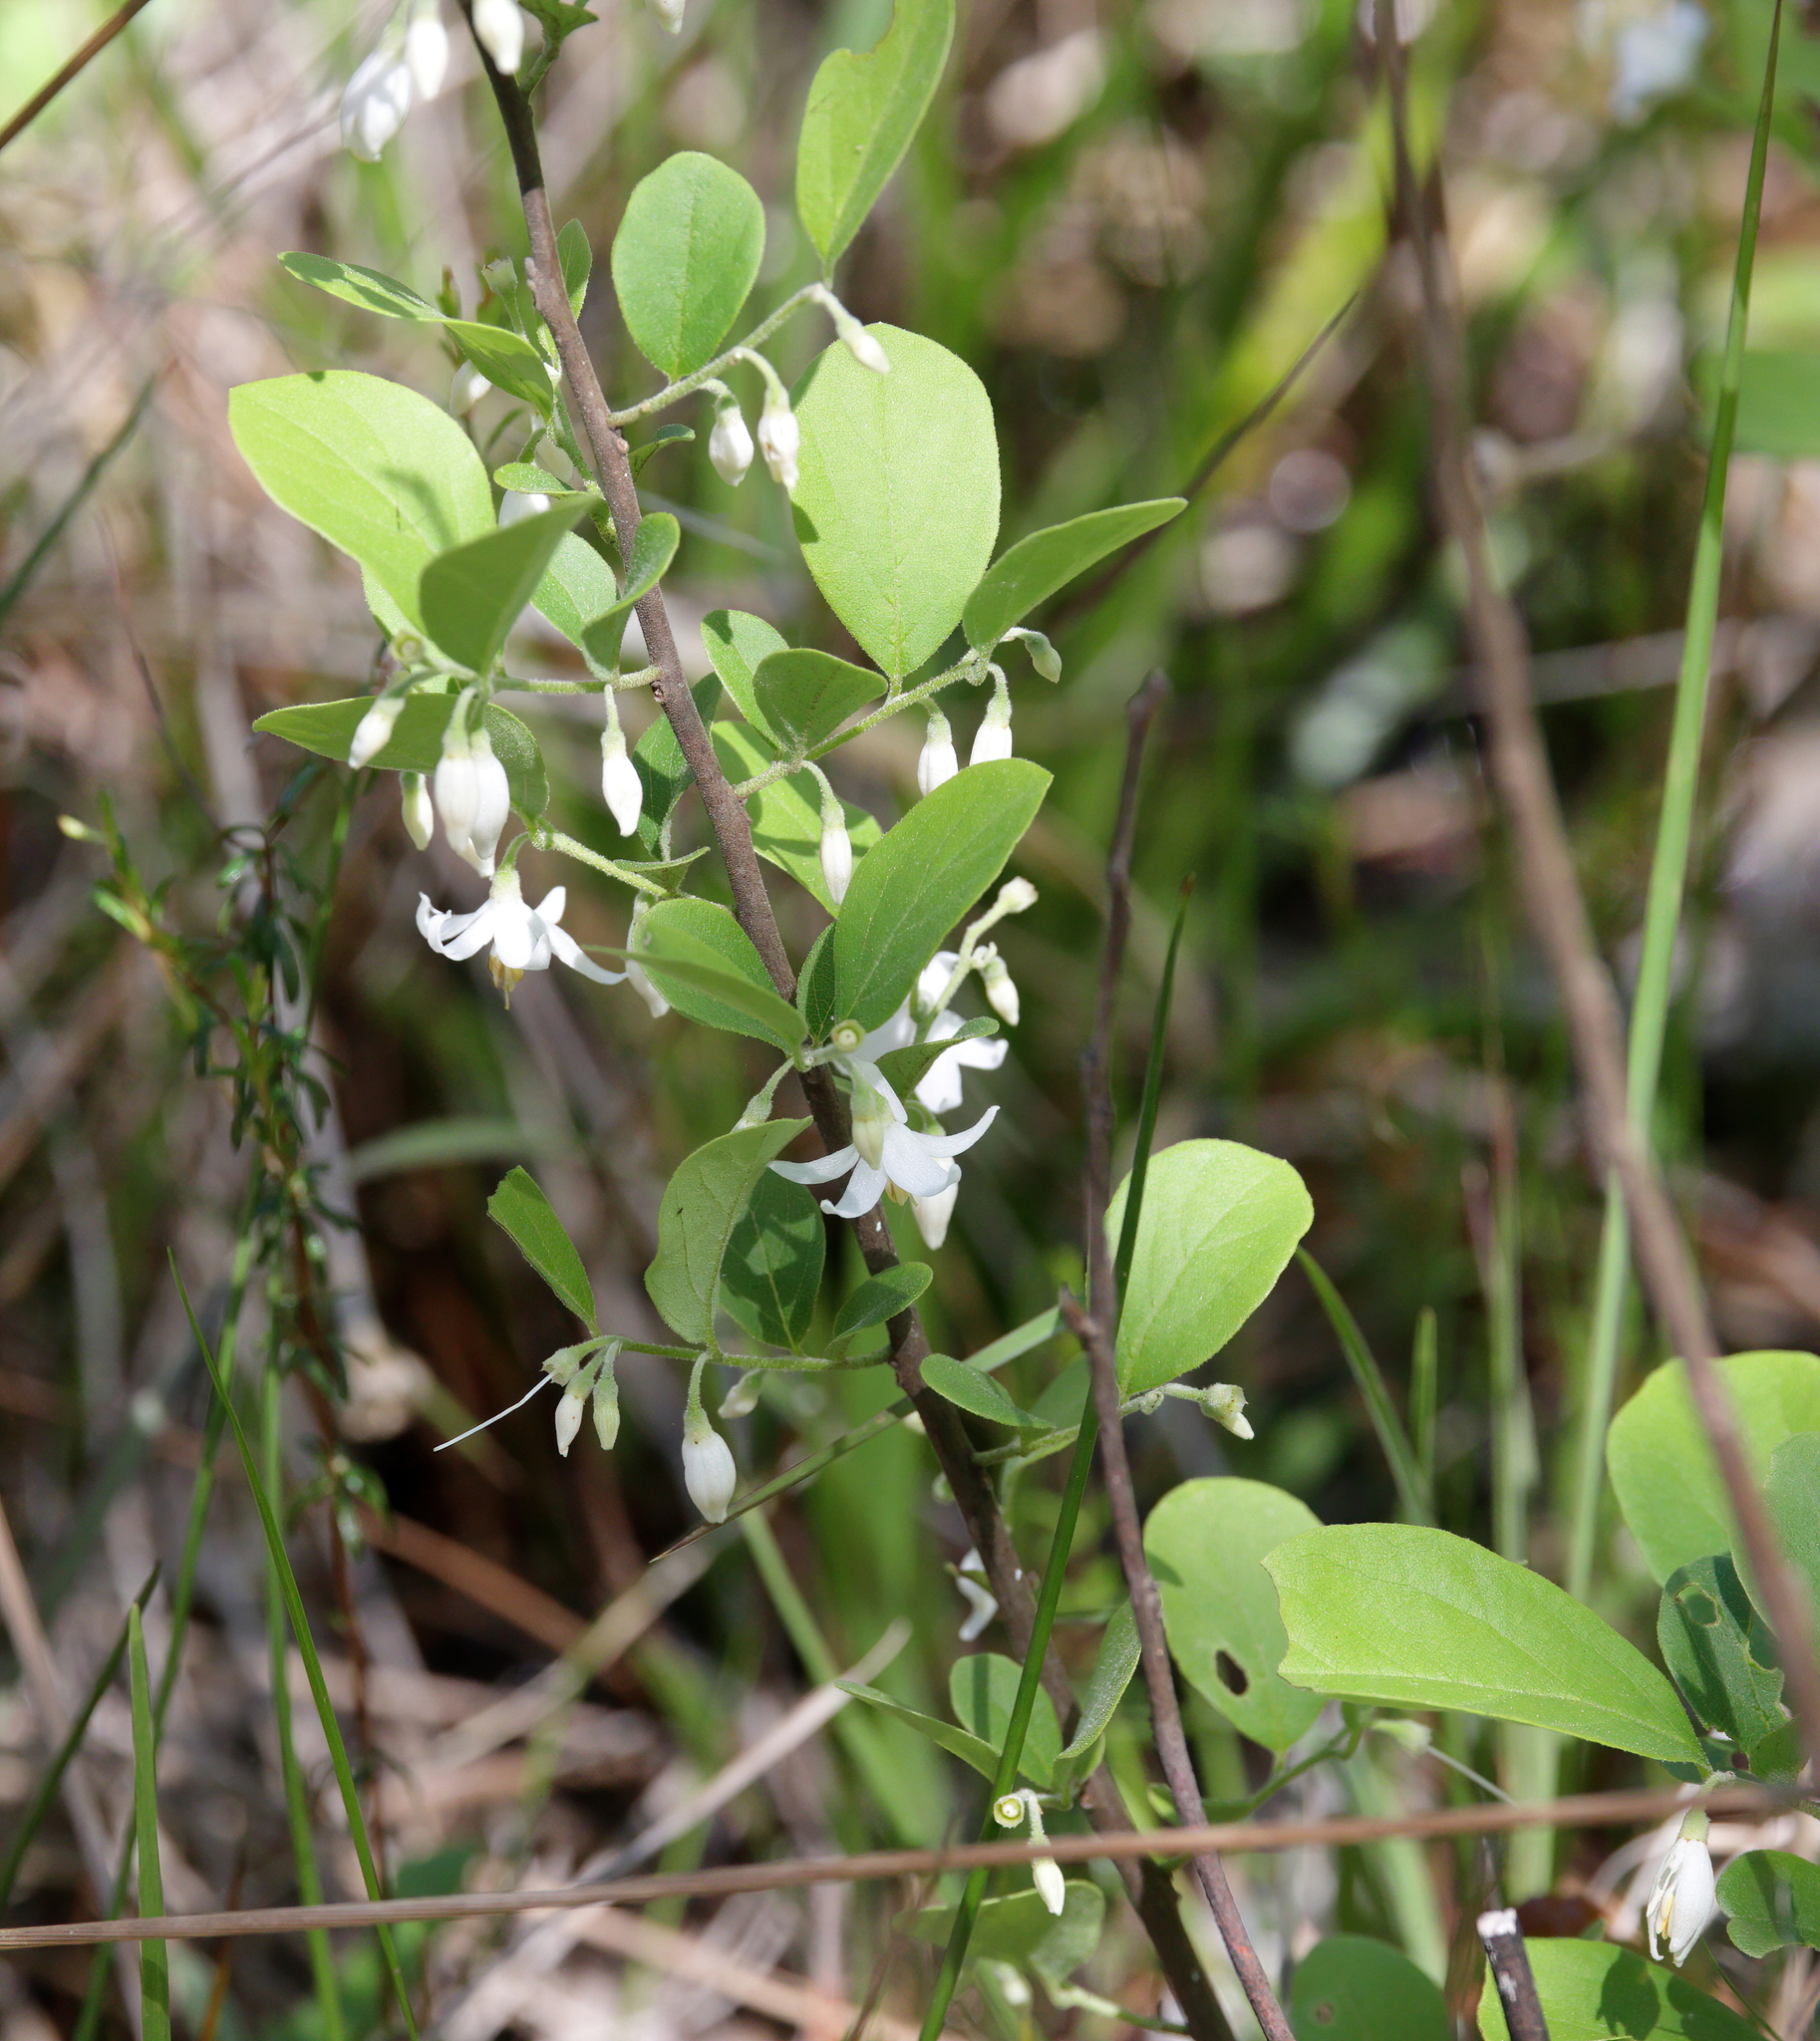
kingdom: Plantae
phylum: Tracheophyta
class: Magnoliopsida
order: Ericales
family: Styracaceae
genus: Styrax
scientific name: Styrax americanus
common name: American snowbell
